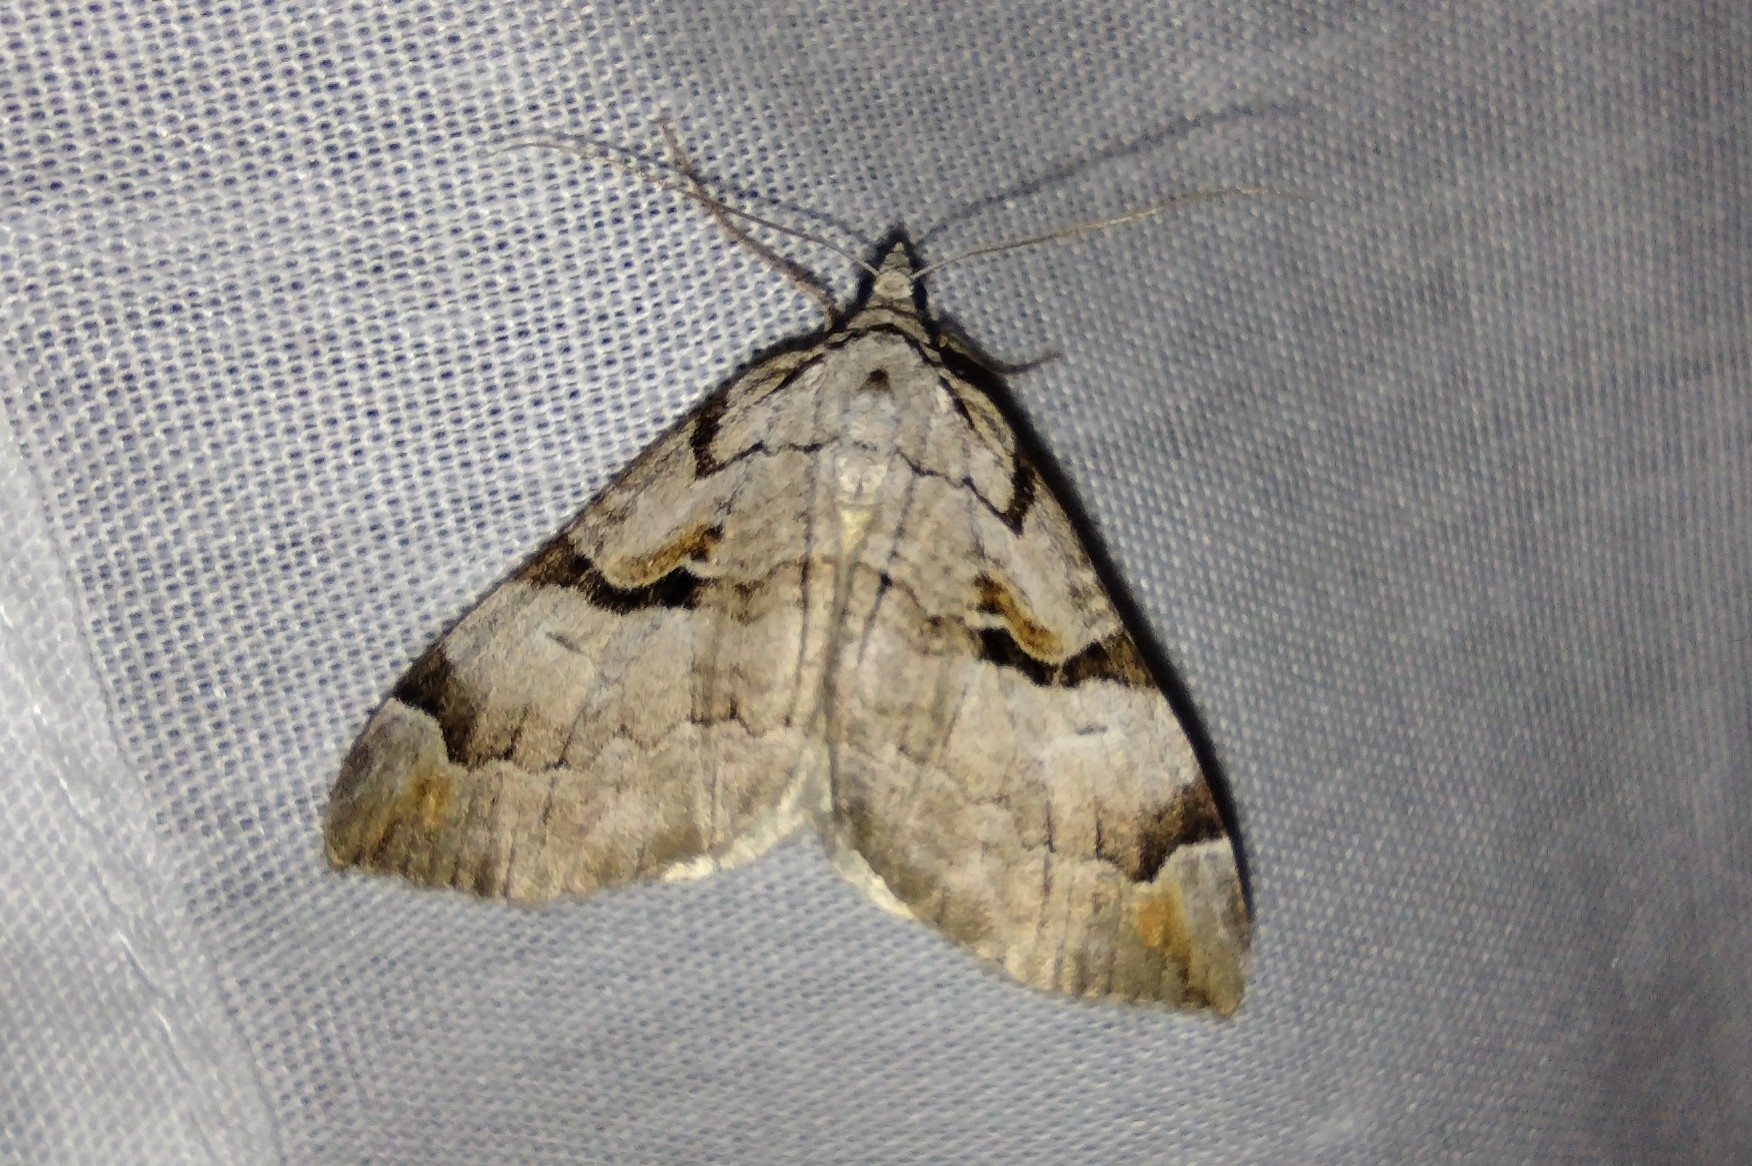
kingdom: Animalia
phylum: Arthropoda
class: Insecta
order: Lepidoptera
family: Geometridae
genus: Aplocera
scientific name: Aplocera praeformata
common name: Purple treble-bar
